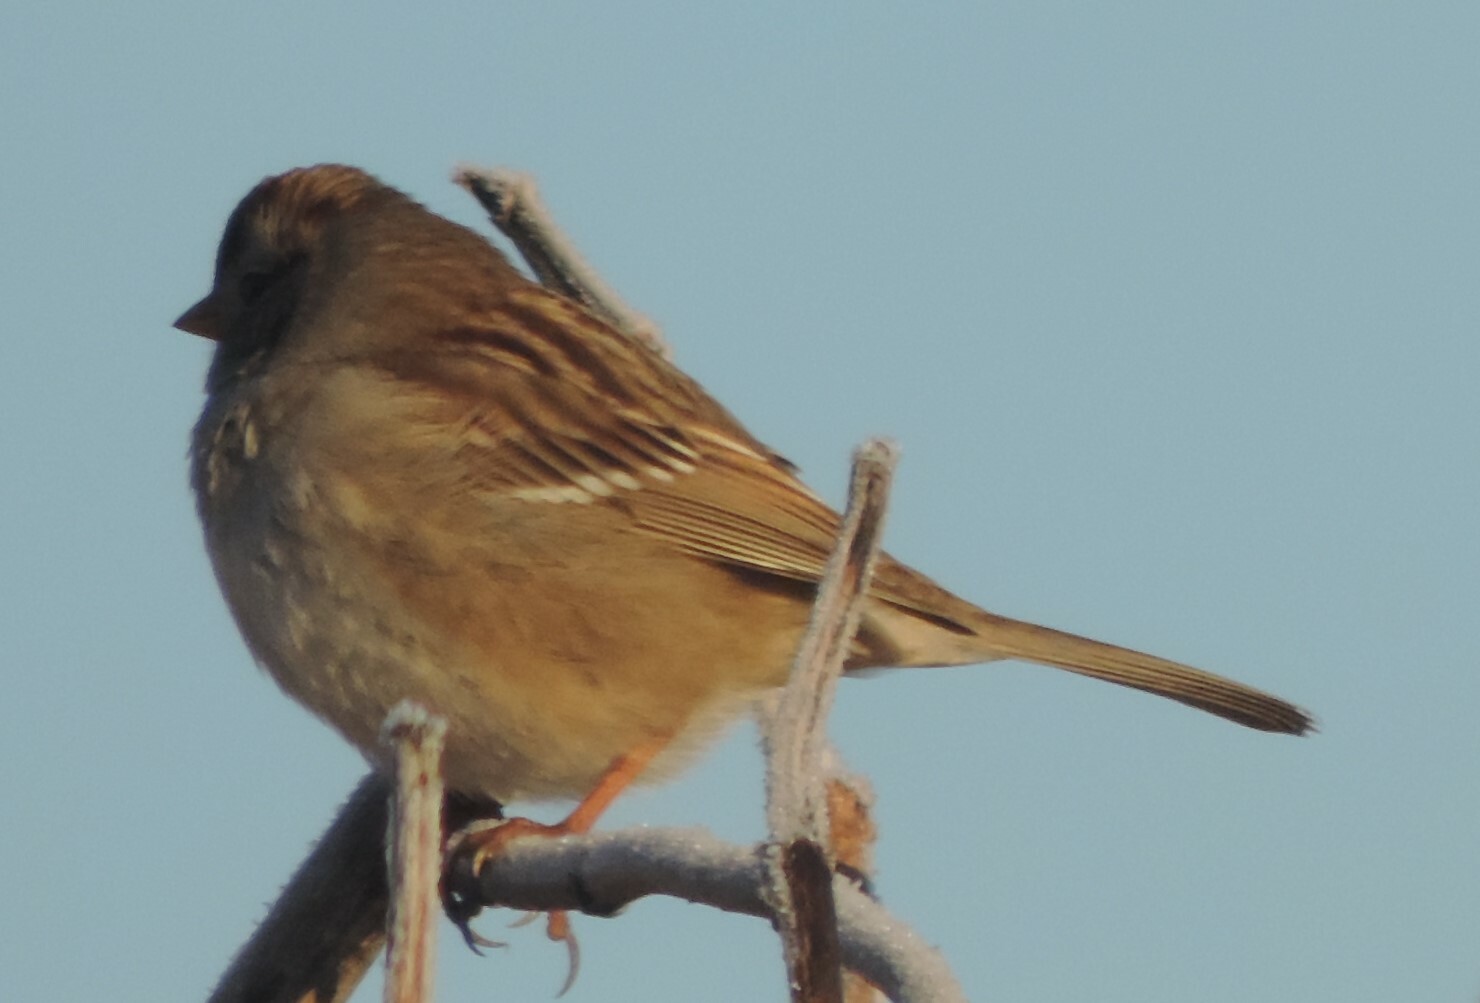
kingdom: Animalia
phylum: Chordata
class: Aves
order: Passeriformes
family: Passerellidae
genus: Zonotrichia
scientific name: Zonotrichia leucophrys
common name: White-crowned sparrow
